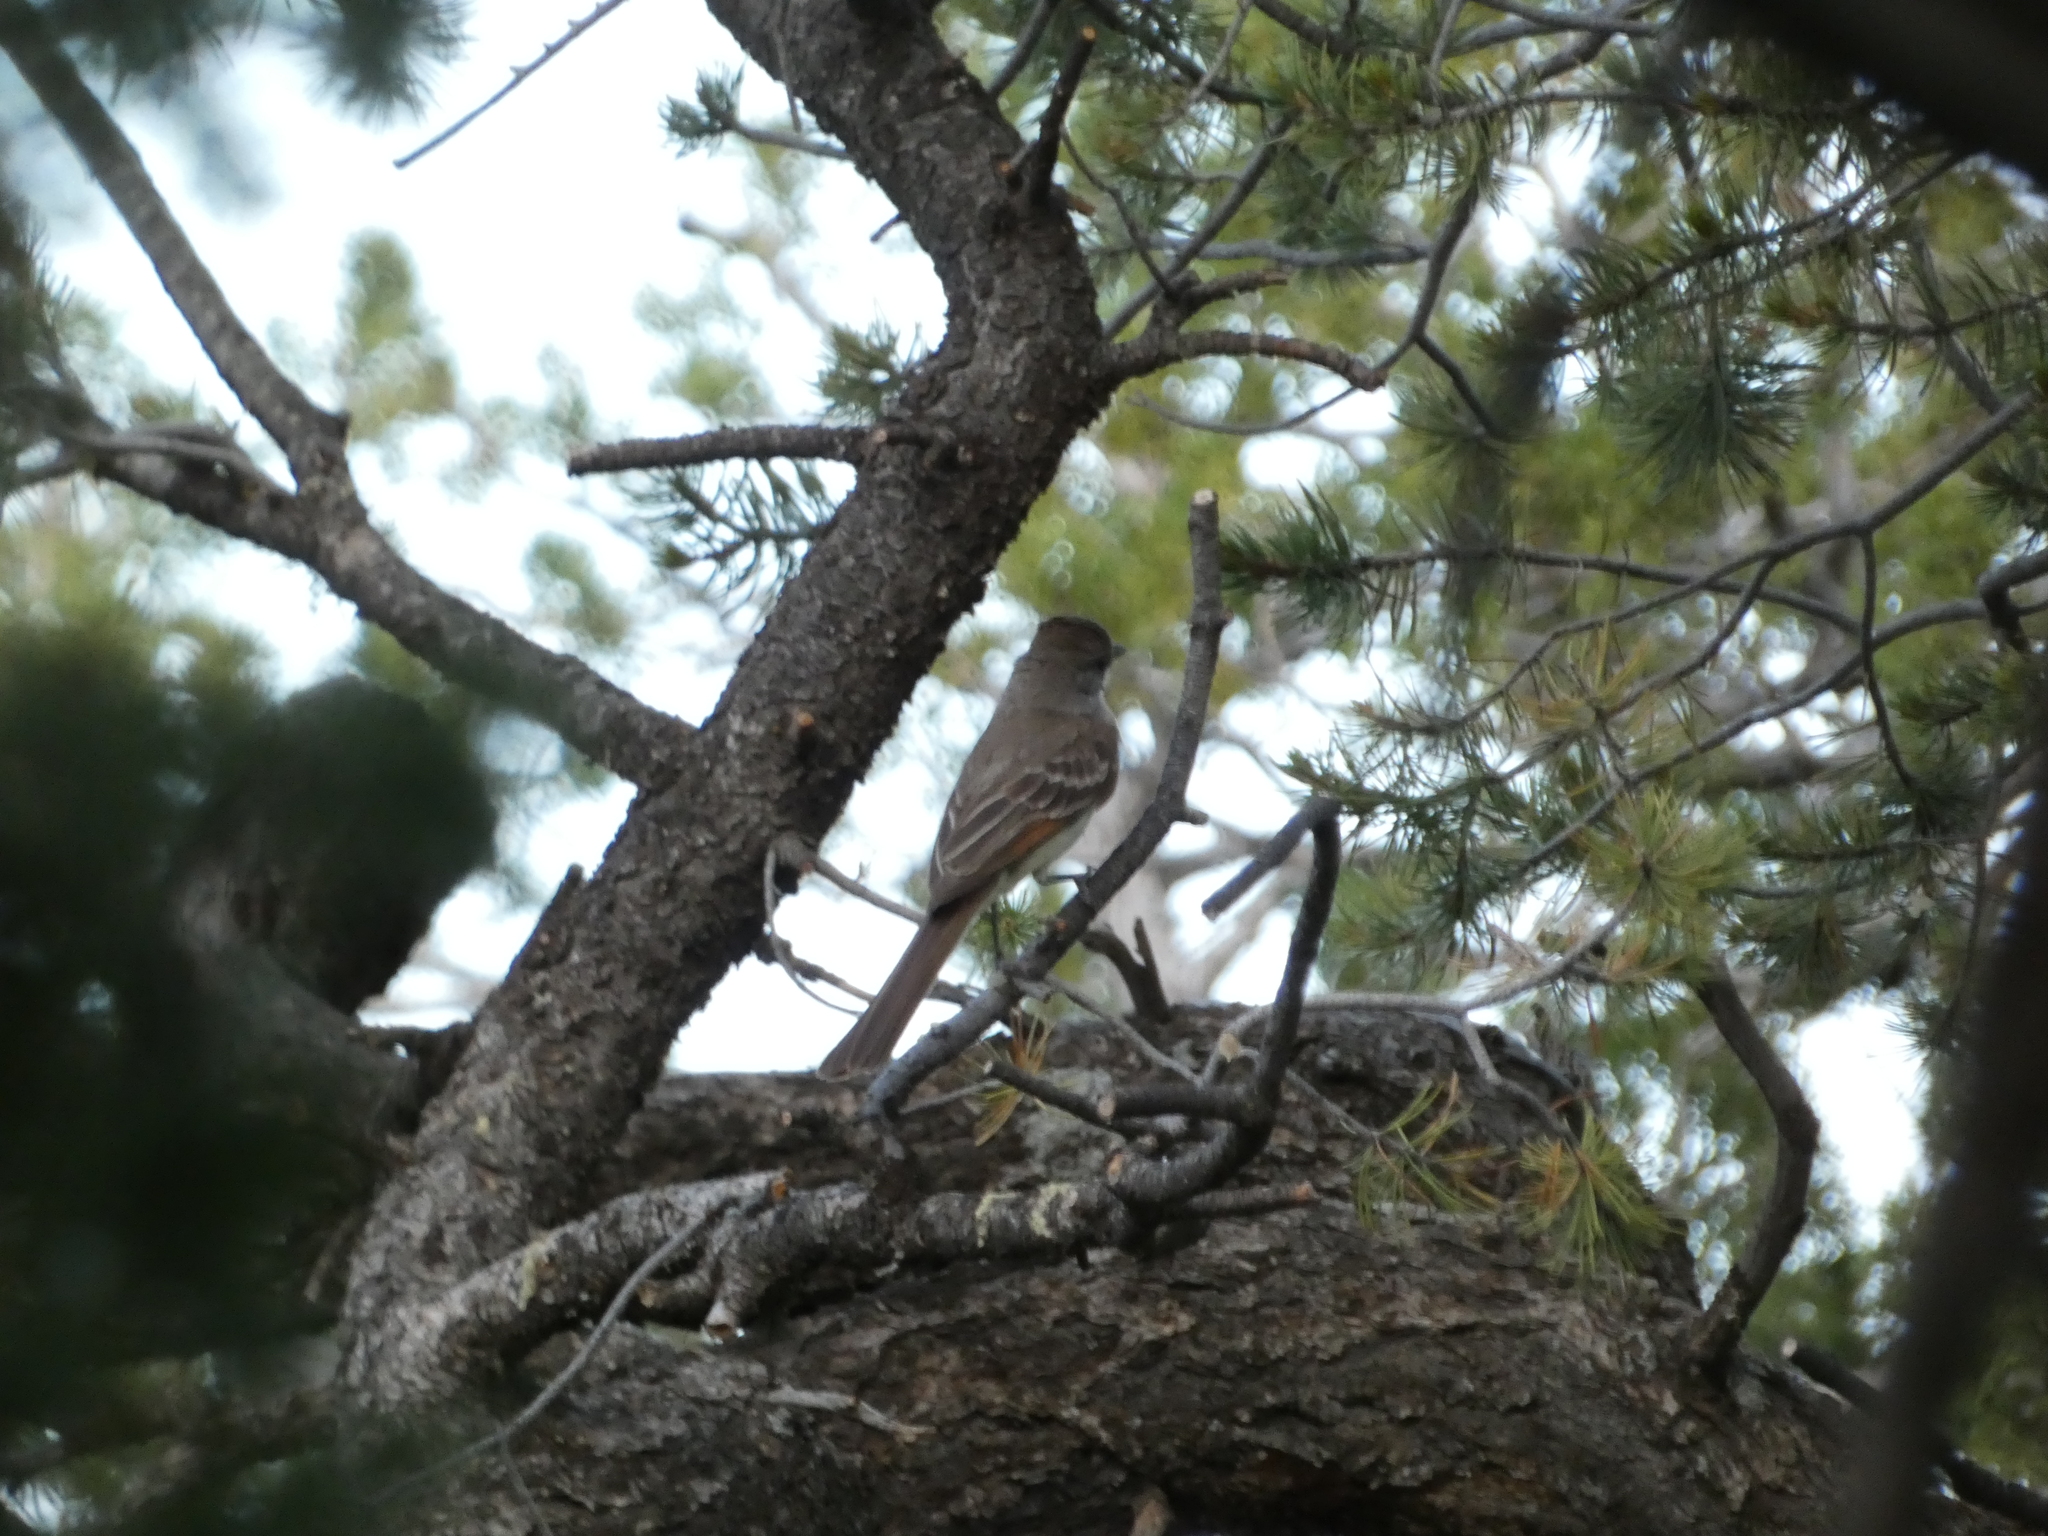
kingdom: Animalia
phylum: Chordata
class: Aves
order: Passeriformes
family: Tyrannidae
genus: Myiarchus
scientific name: Myiarchus cinerascens
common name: Ash-throated flycatcher
